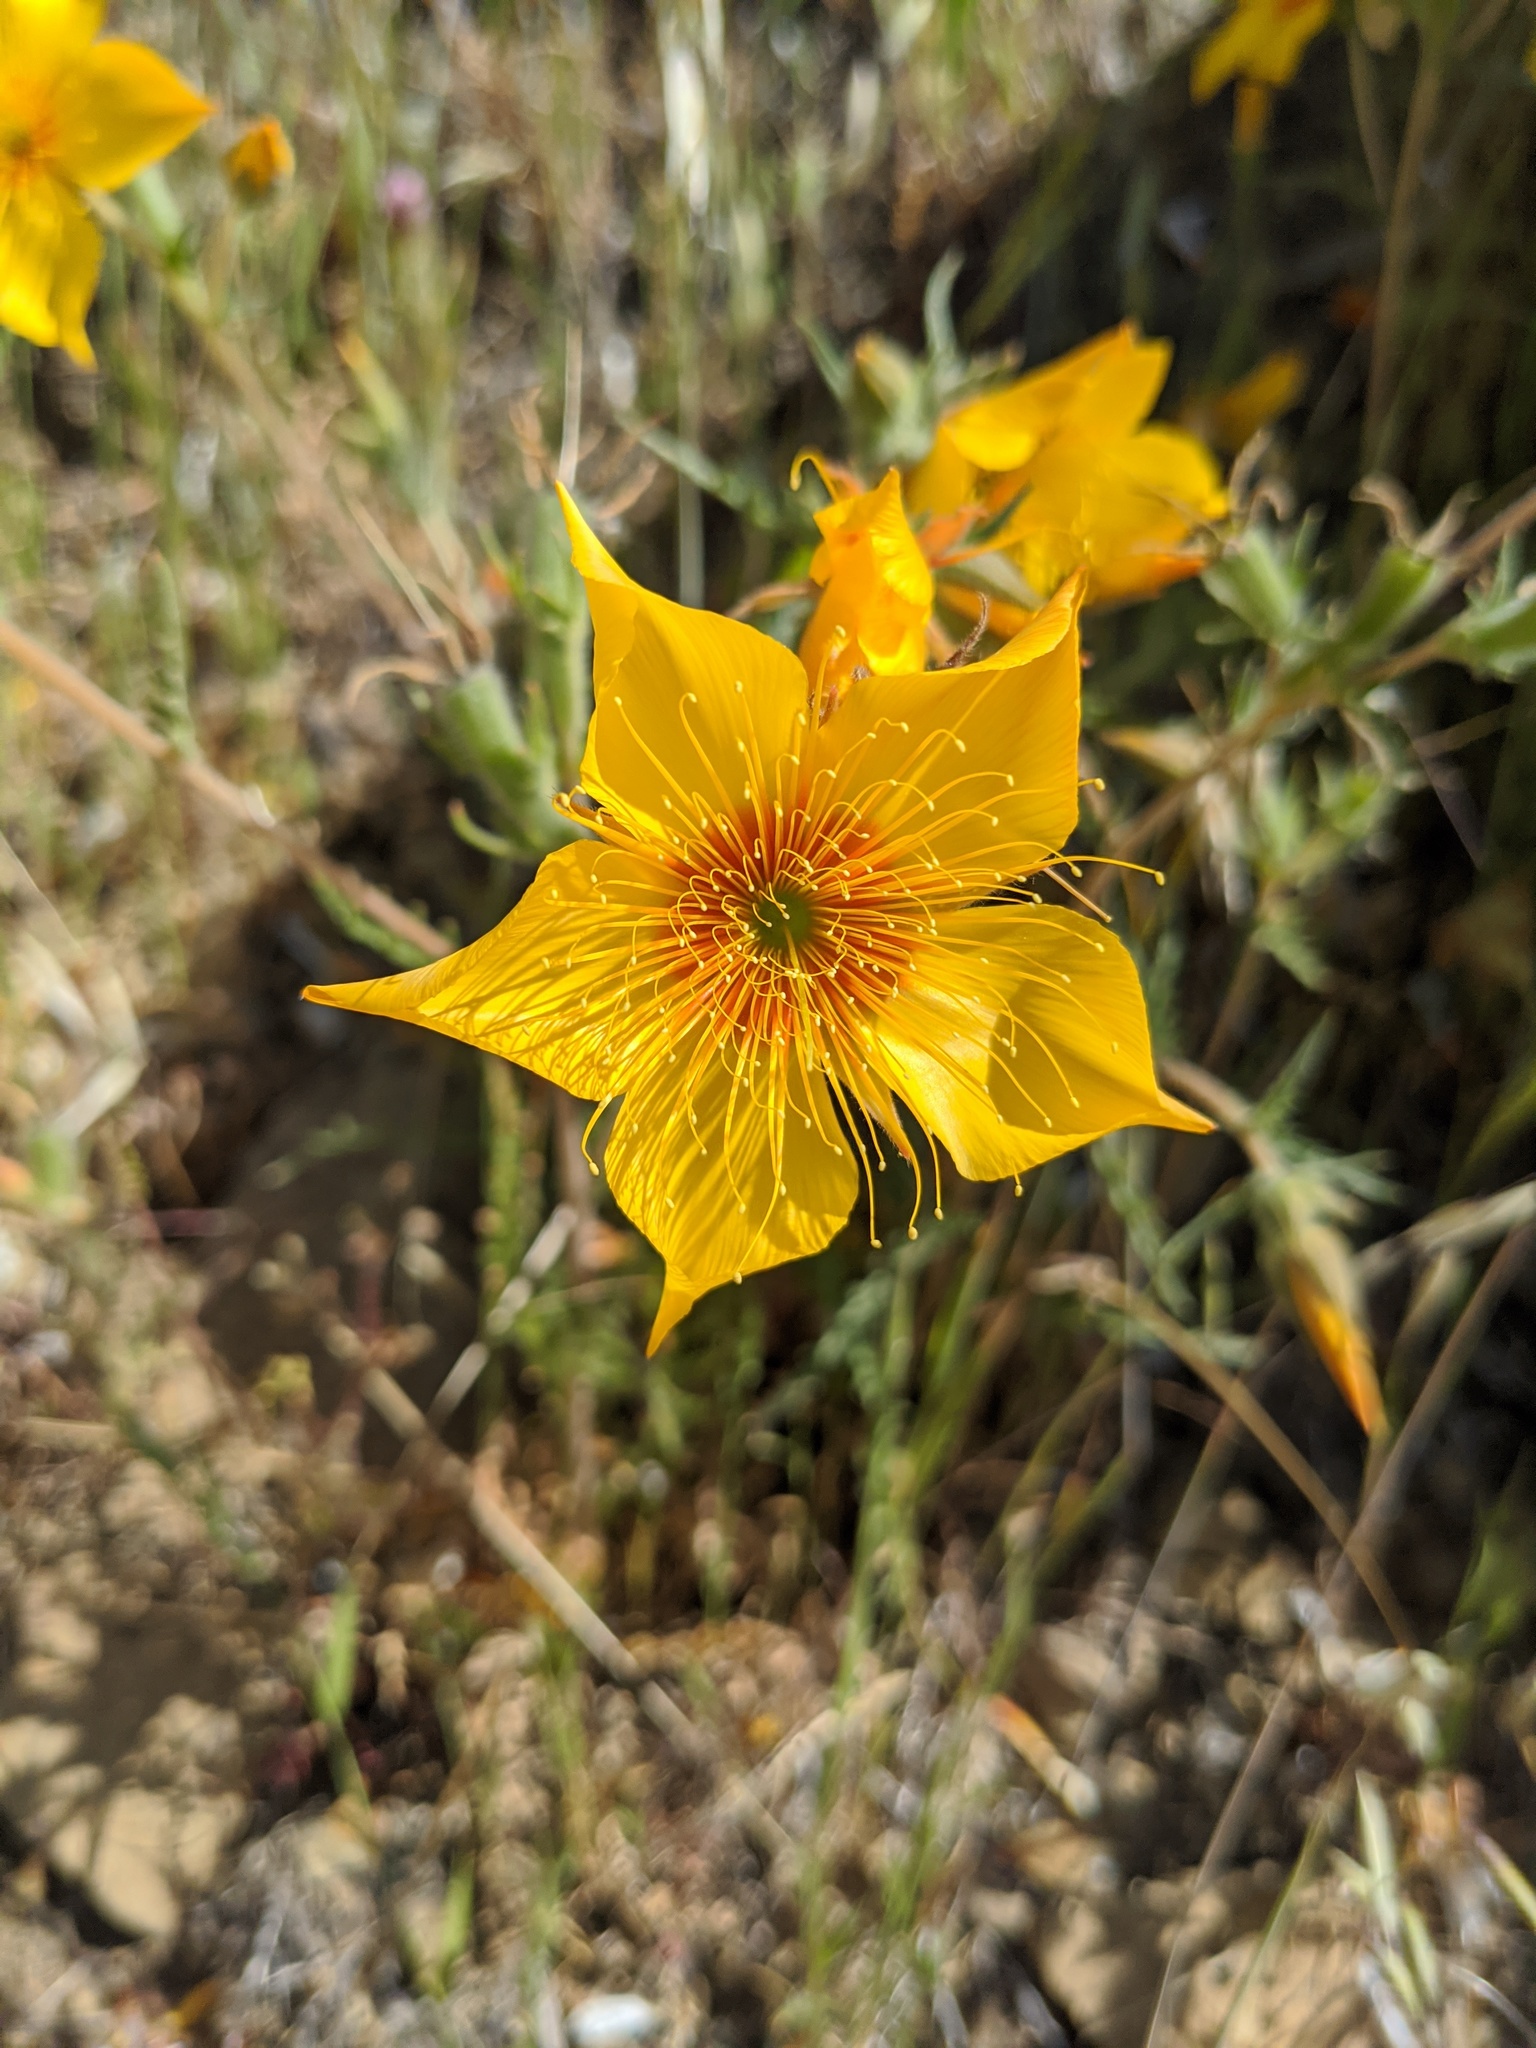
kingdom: Plantae
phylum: Tracheophyta
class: Magnoliopsida
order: Cornales
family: Loasaceae
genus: Mentzelia
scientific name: Mentzelia lindleyi
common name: Golden bartonia
